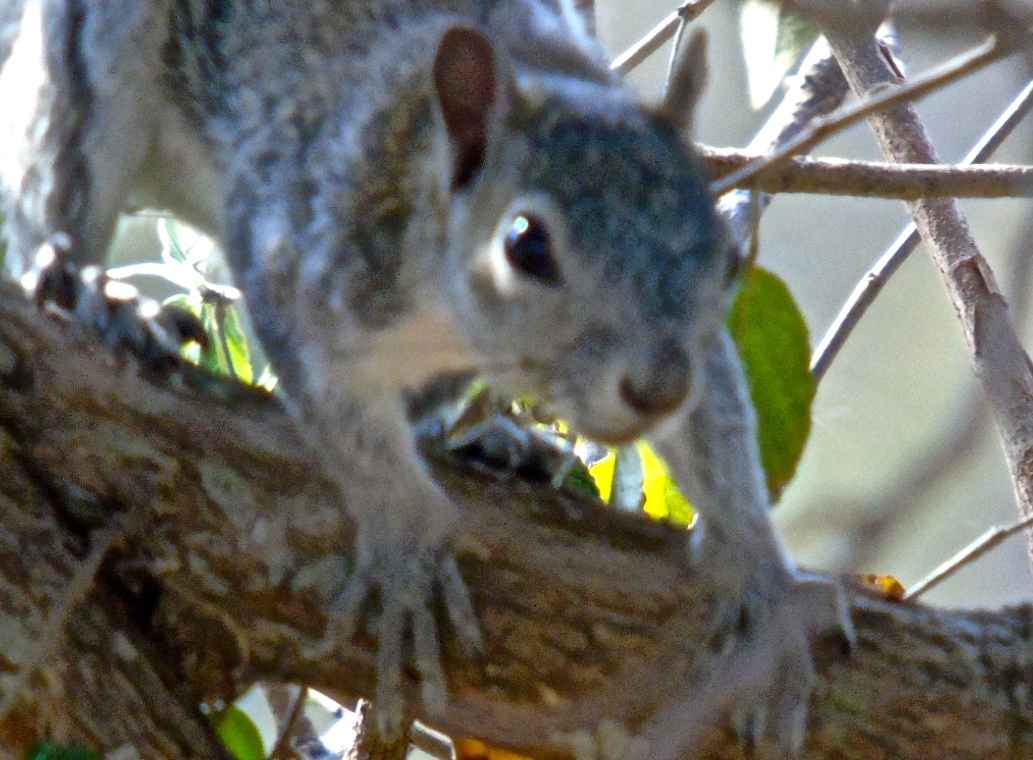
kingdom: Animalia
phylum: Chordata
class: Mammalia
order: Rodentia
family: Sciuridae
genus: Sciurus
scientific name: Sciurus colliaei
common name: Collie's squirrel
